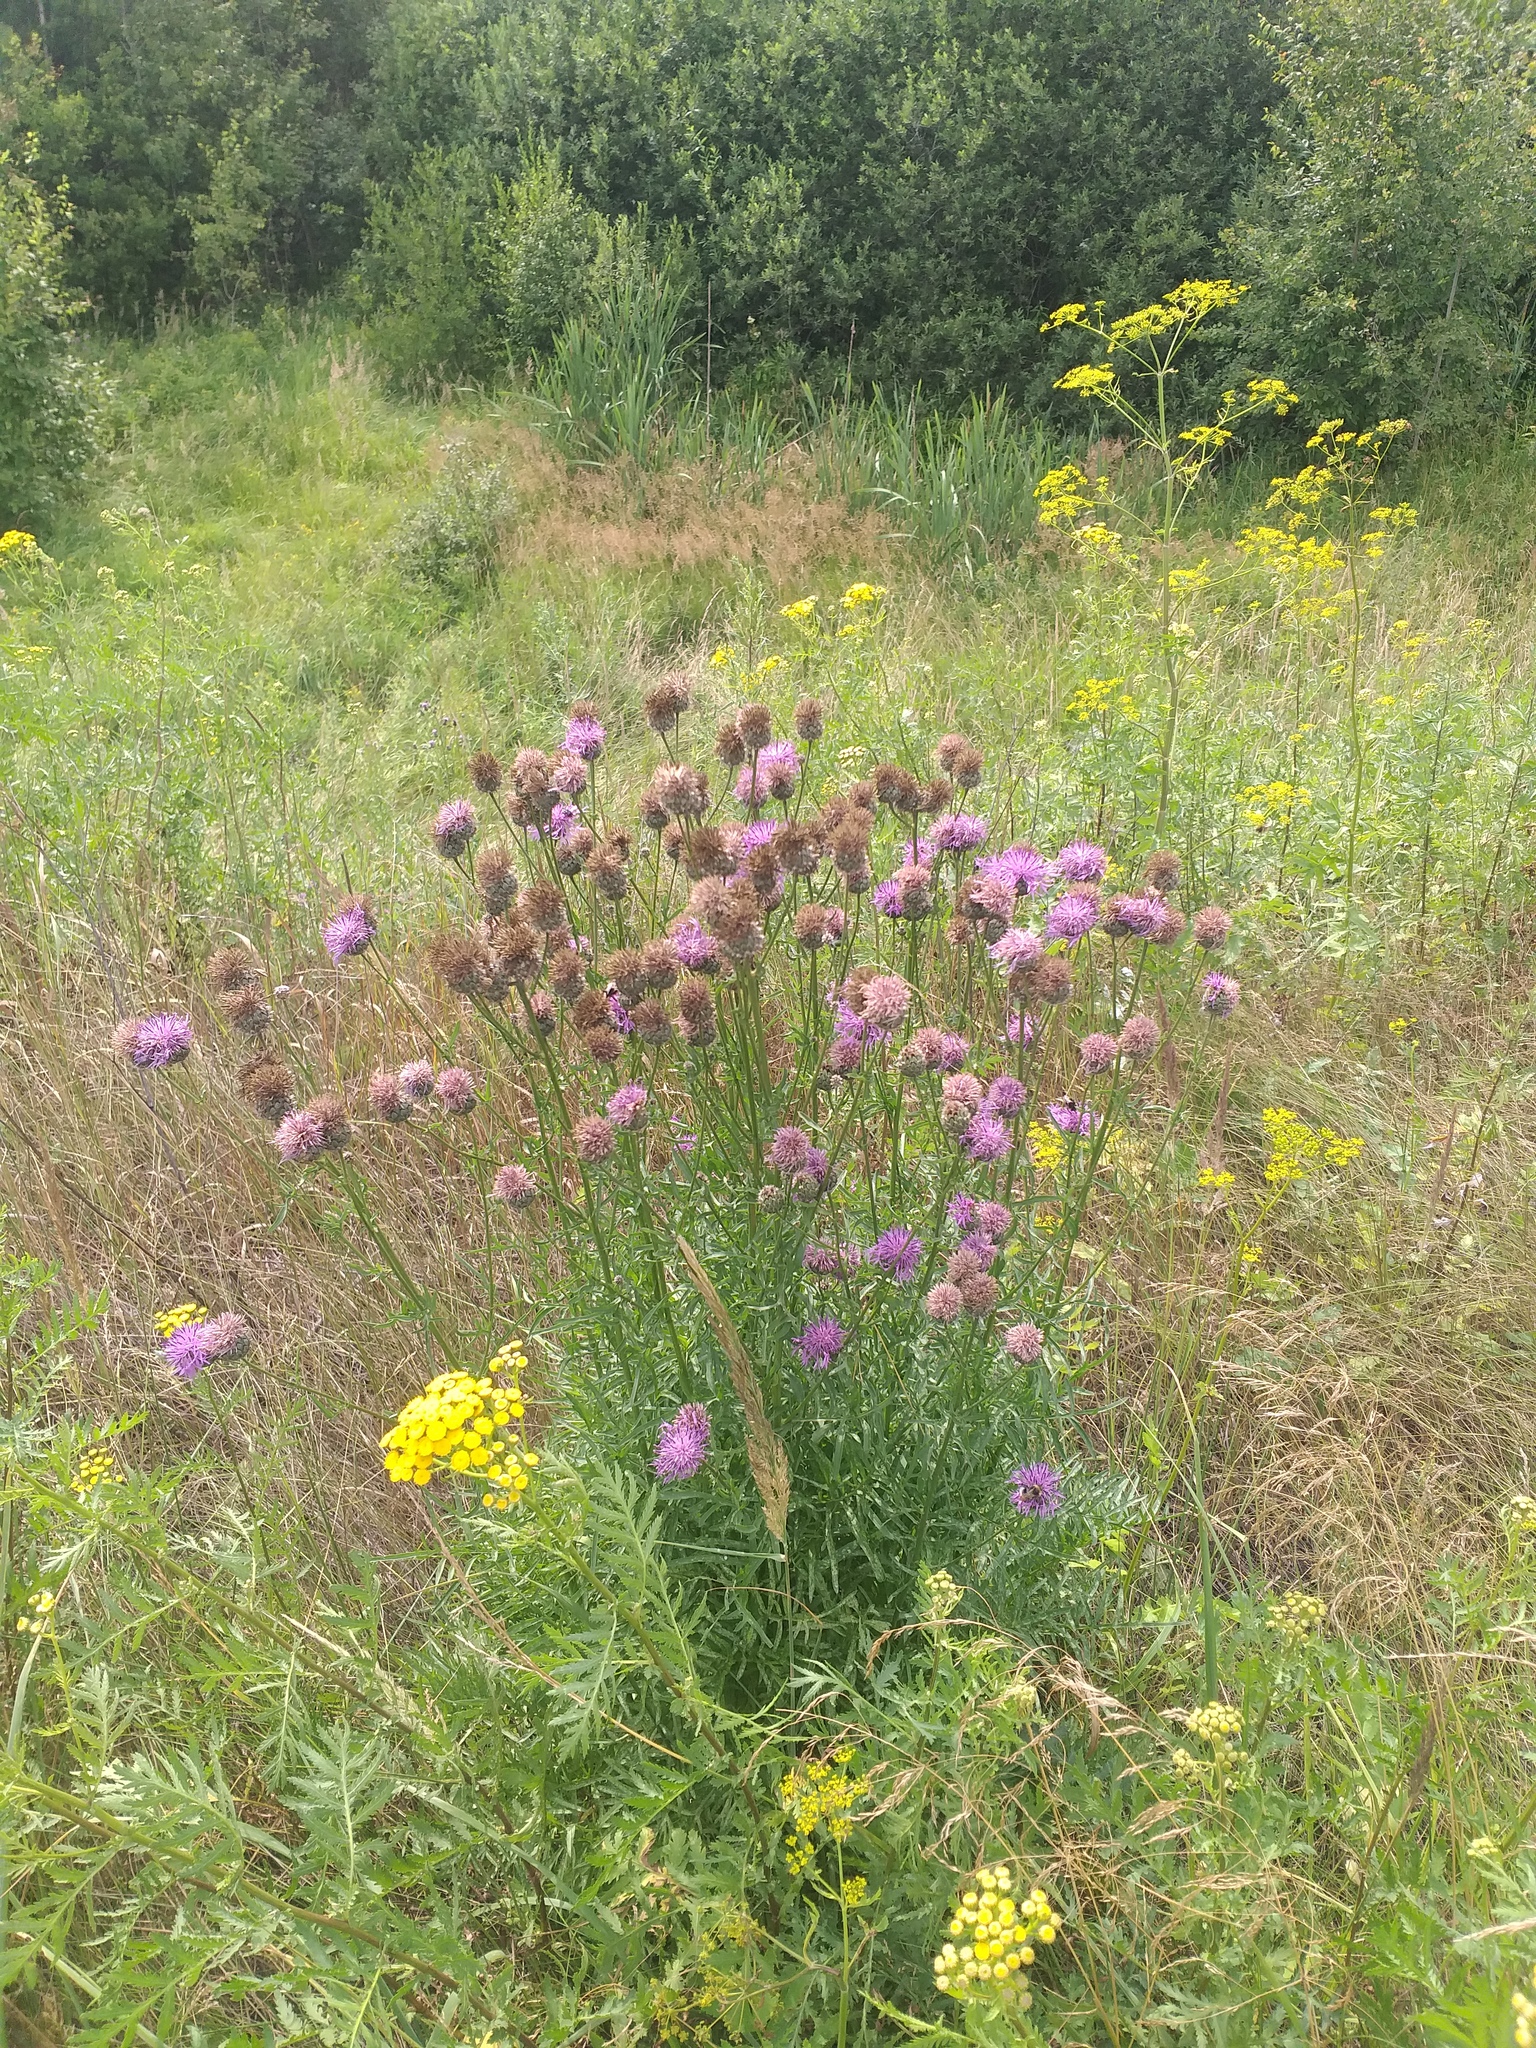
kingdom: Plantae
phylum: Tracheophyta
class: Magnoliopsida
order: Asterales
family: Asteraceae
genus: Centaurea
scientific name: Centaurea scabiosa
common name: Greater knapweed
